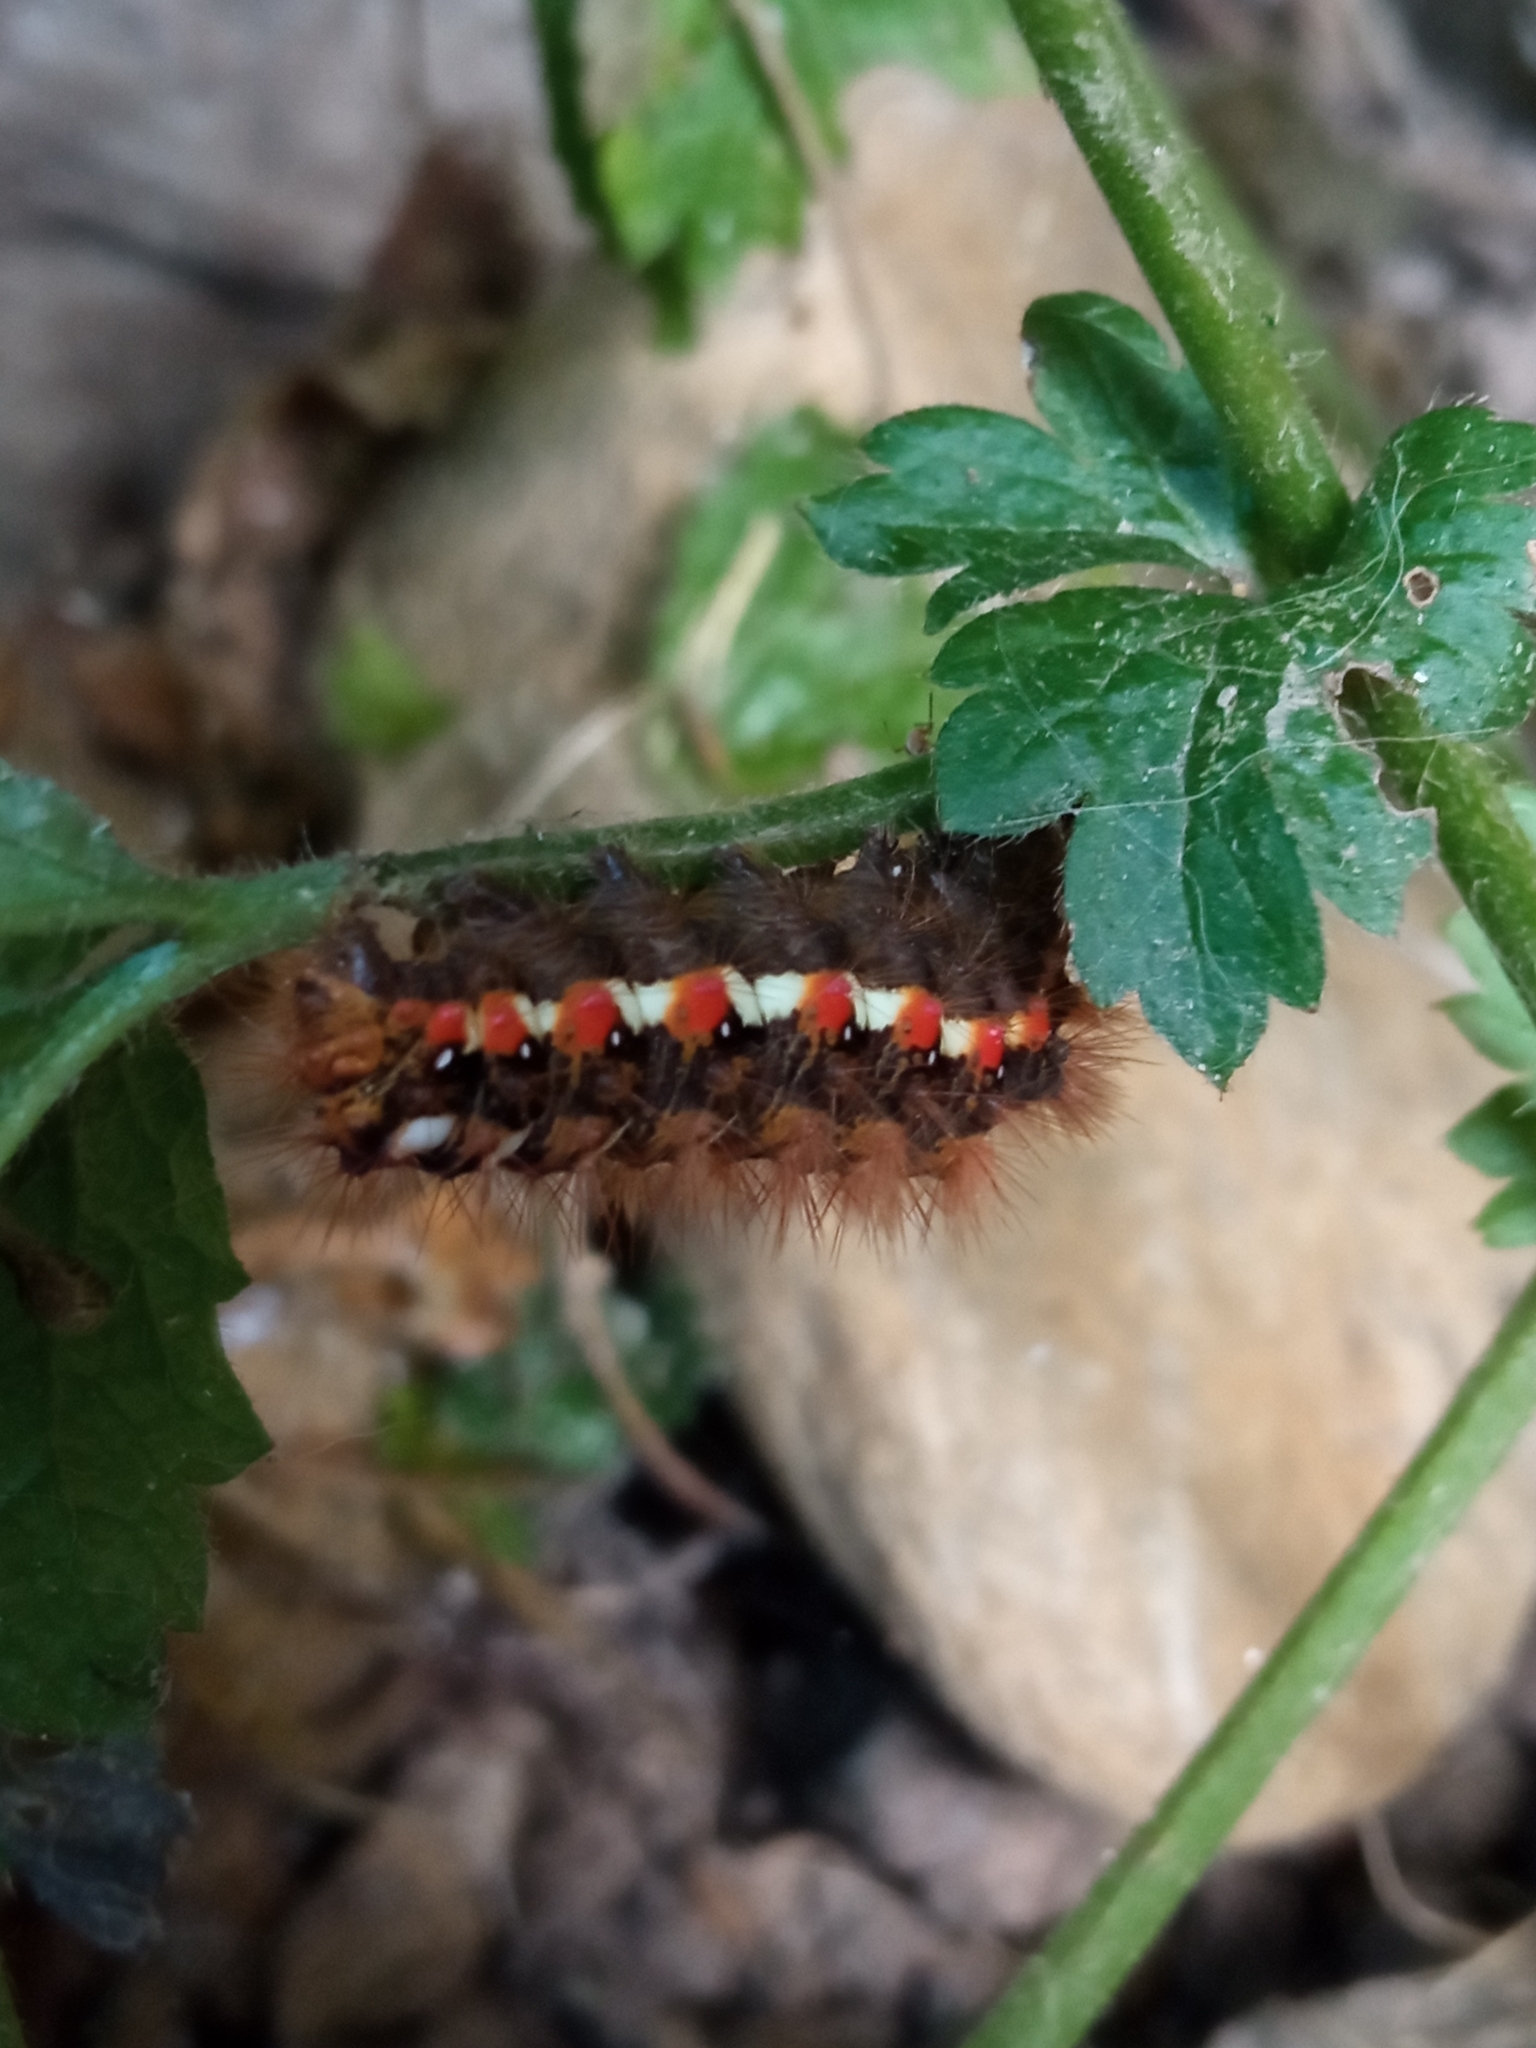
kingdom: Animalia
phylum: Arthropoda
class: Insecta
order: Lepidoptera
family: Noctuidae
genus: Acronicta
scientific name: Acronicta rumicis
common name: Knot grass
